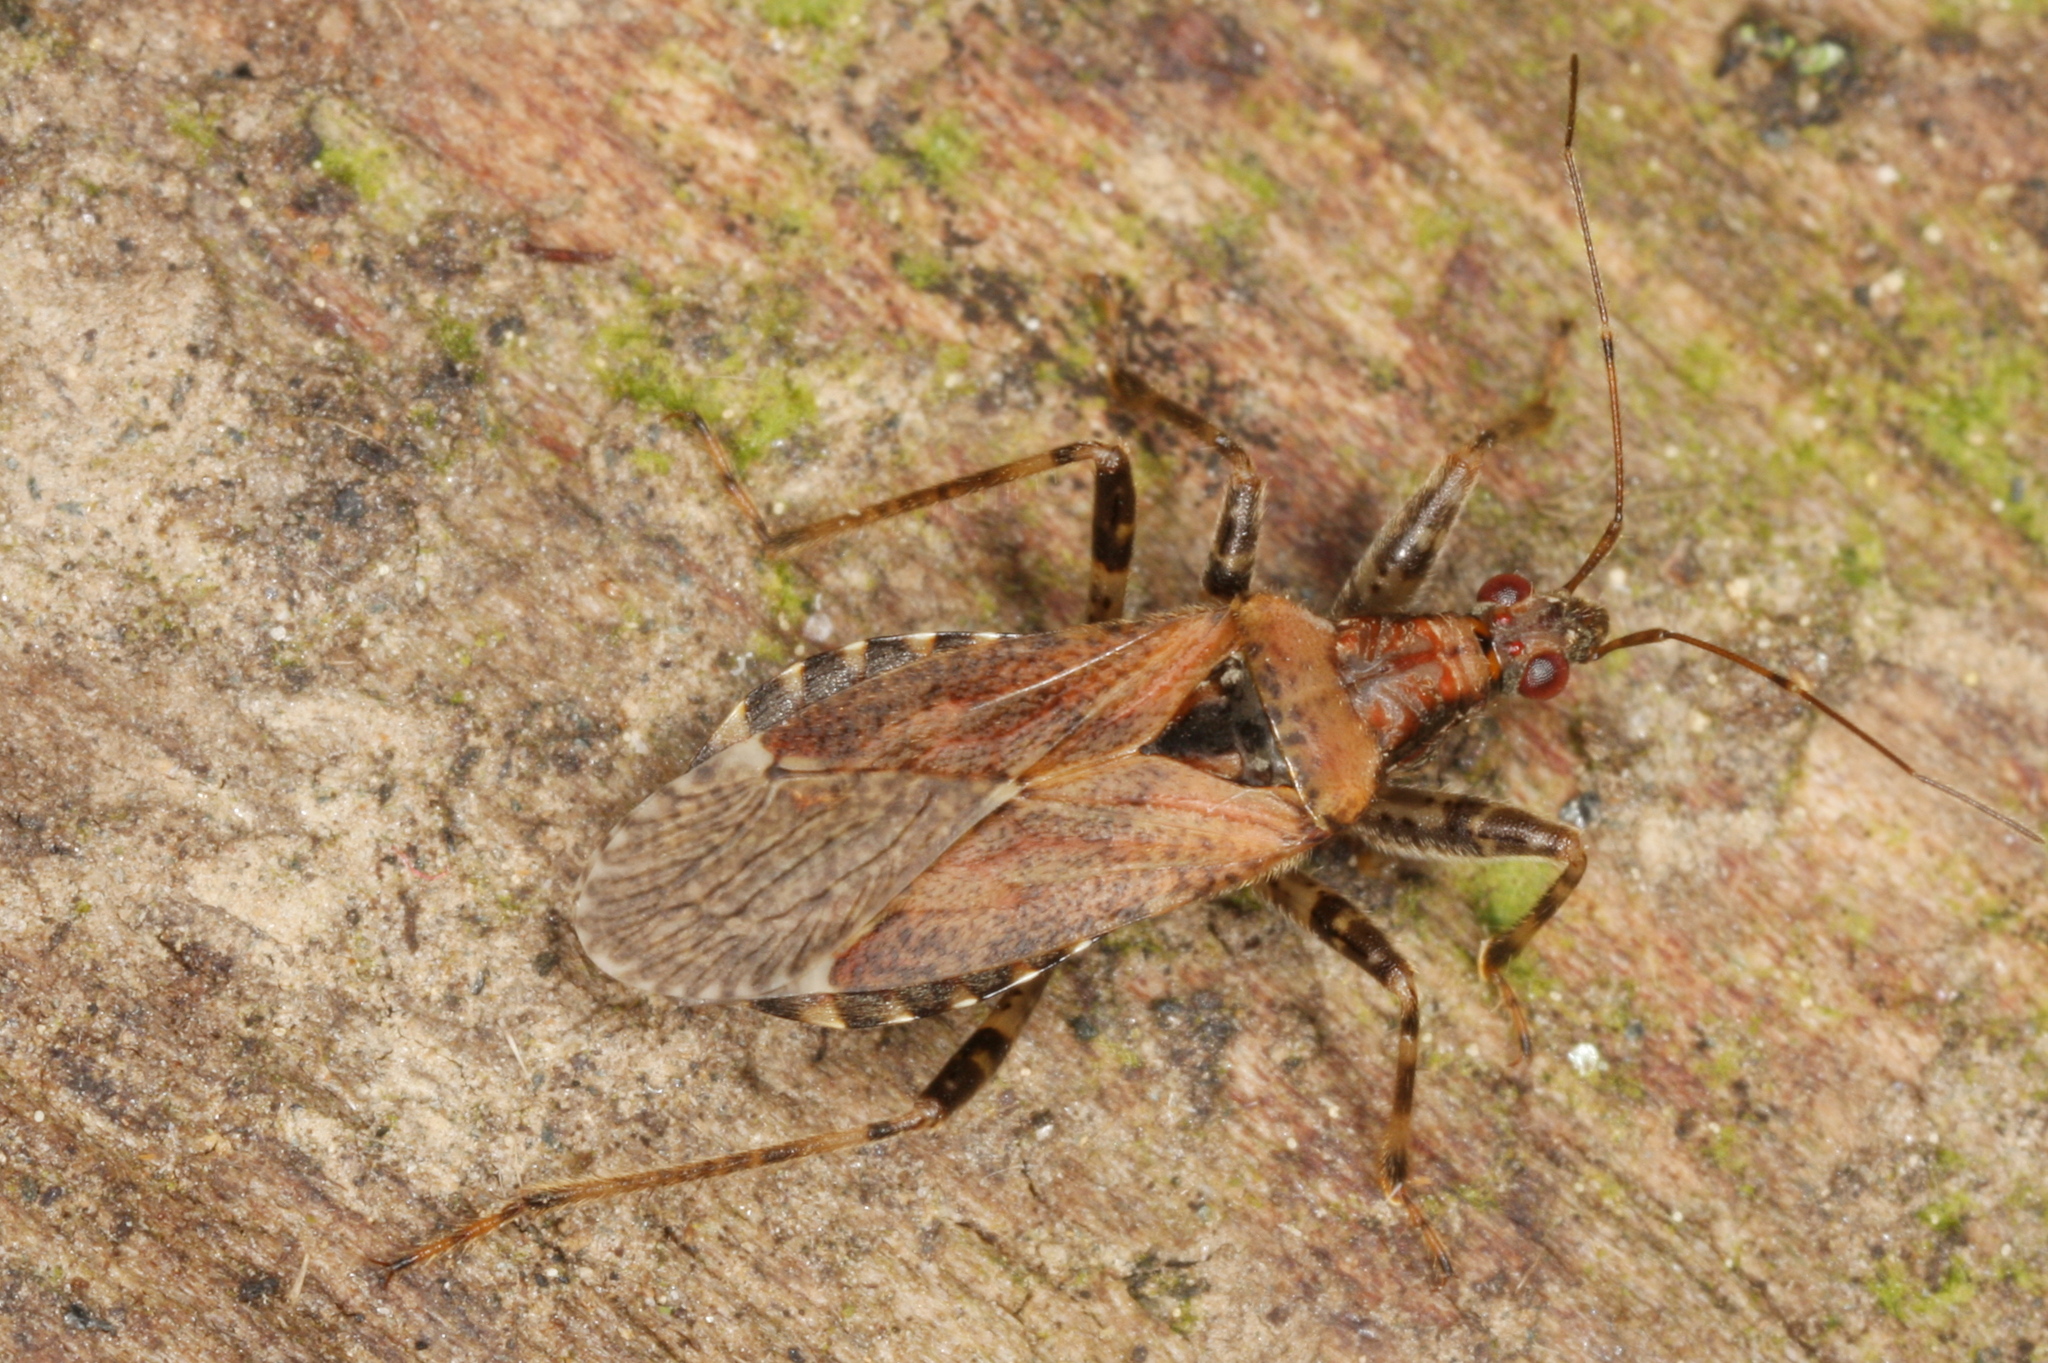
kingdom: Animalia
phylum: Arthropoda
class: Insecta
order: Hemiptera
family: Nabidae
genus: Himacerus
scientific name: Himacerus mirmicoides
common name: Ant damsel bug
